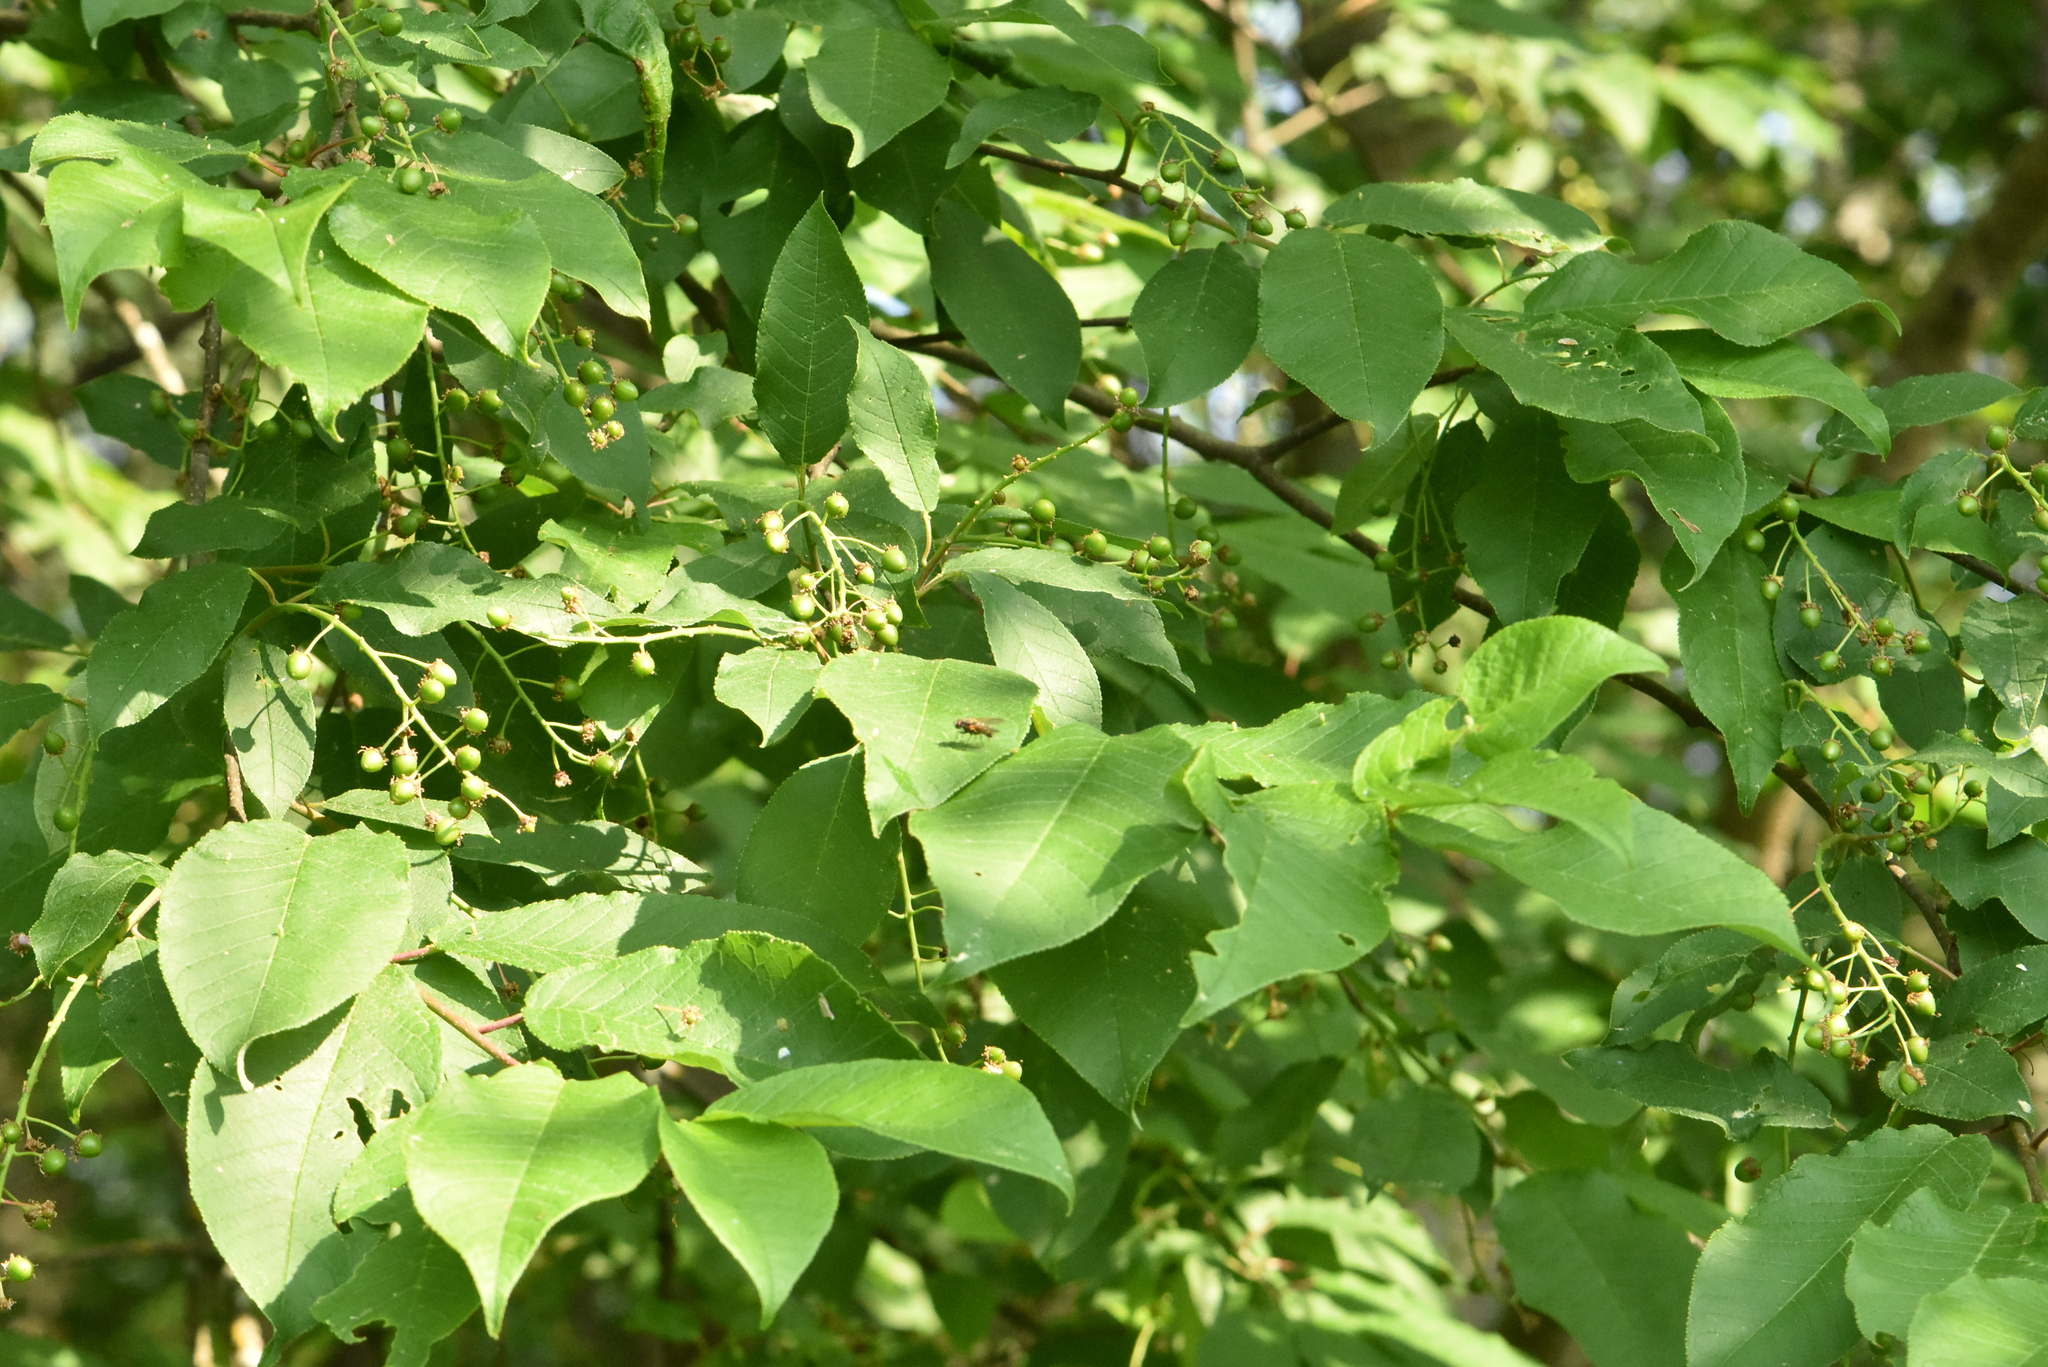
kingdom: Plantae
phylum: Tracheophyta
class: Magnoliopsida
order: Rosales
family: Rosaceae
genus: Prunus
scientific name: Prunus padus
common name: Bird cherry
